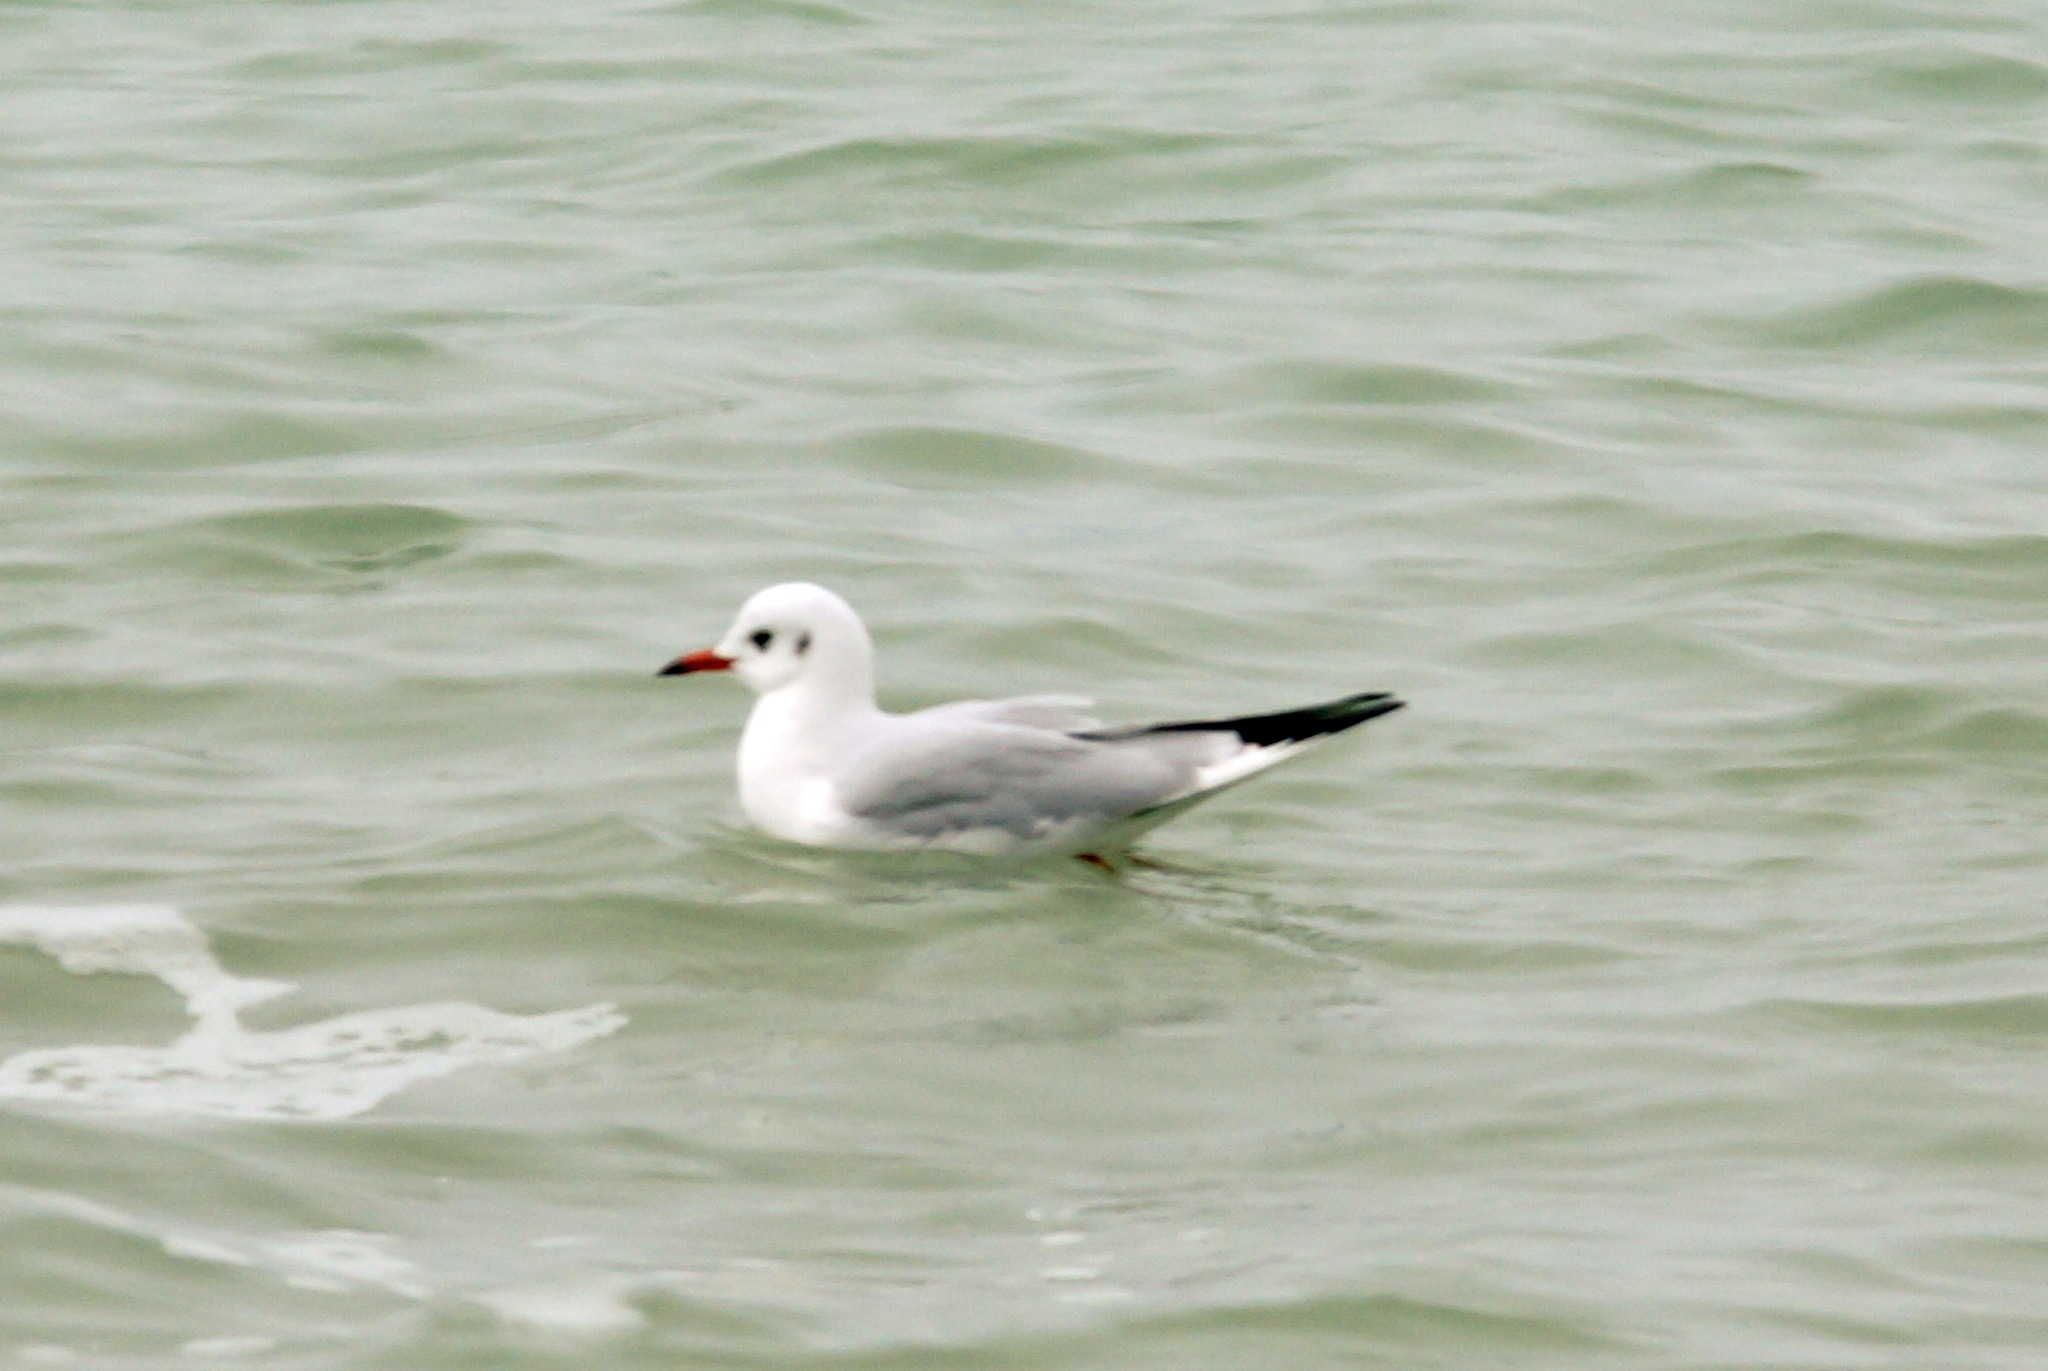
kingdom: Animalia
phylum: Chordata
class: Aves
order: Charadriiformes
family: Laridae
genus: Chroicocephalus
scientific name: Chroicocephalus ridibundus
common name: Black-headed gull
